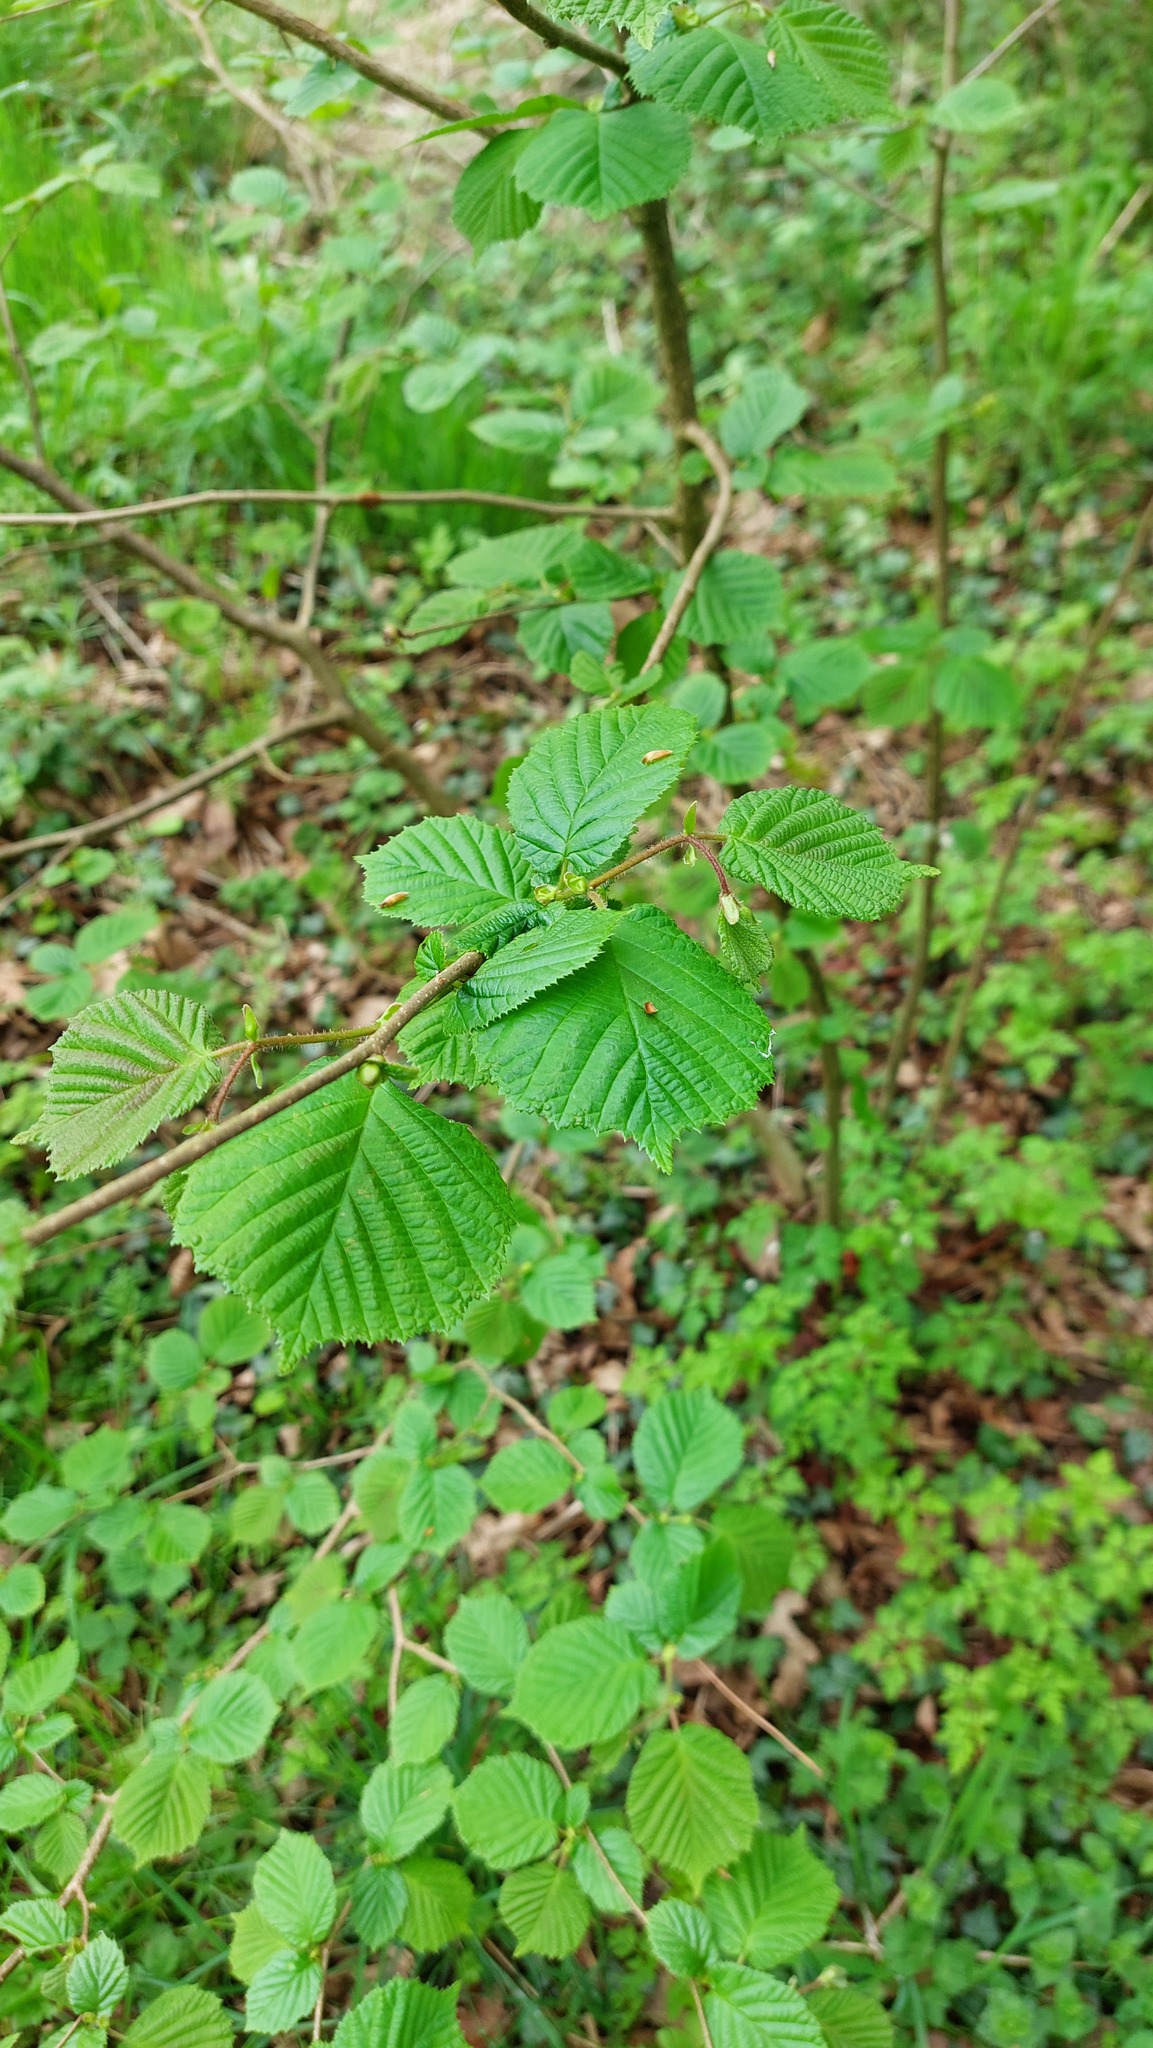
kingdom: Plantae
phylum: Tracheophyta
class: Magnoliopsida
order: Fagales
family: Betulaceae
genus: Corylus
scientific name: Corylus avellana
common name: European hazel
